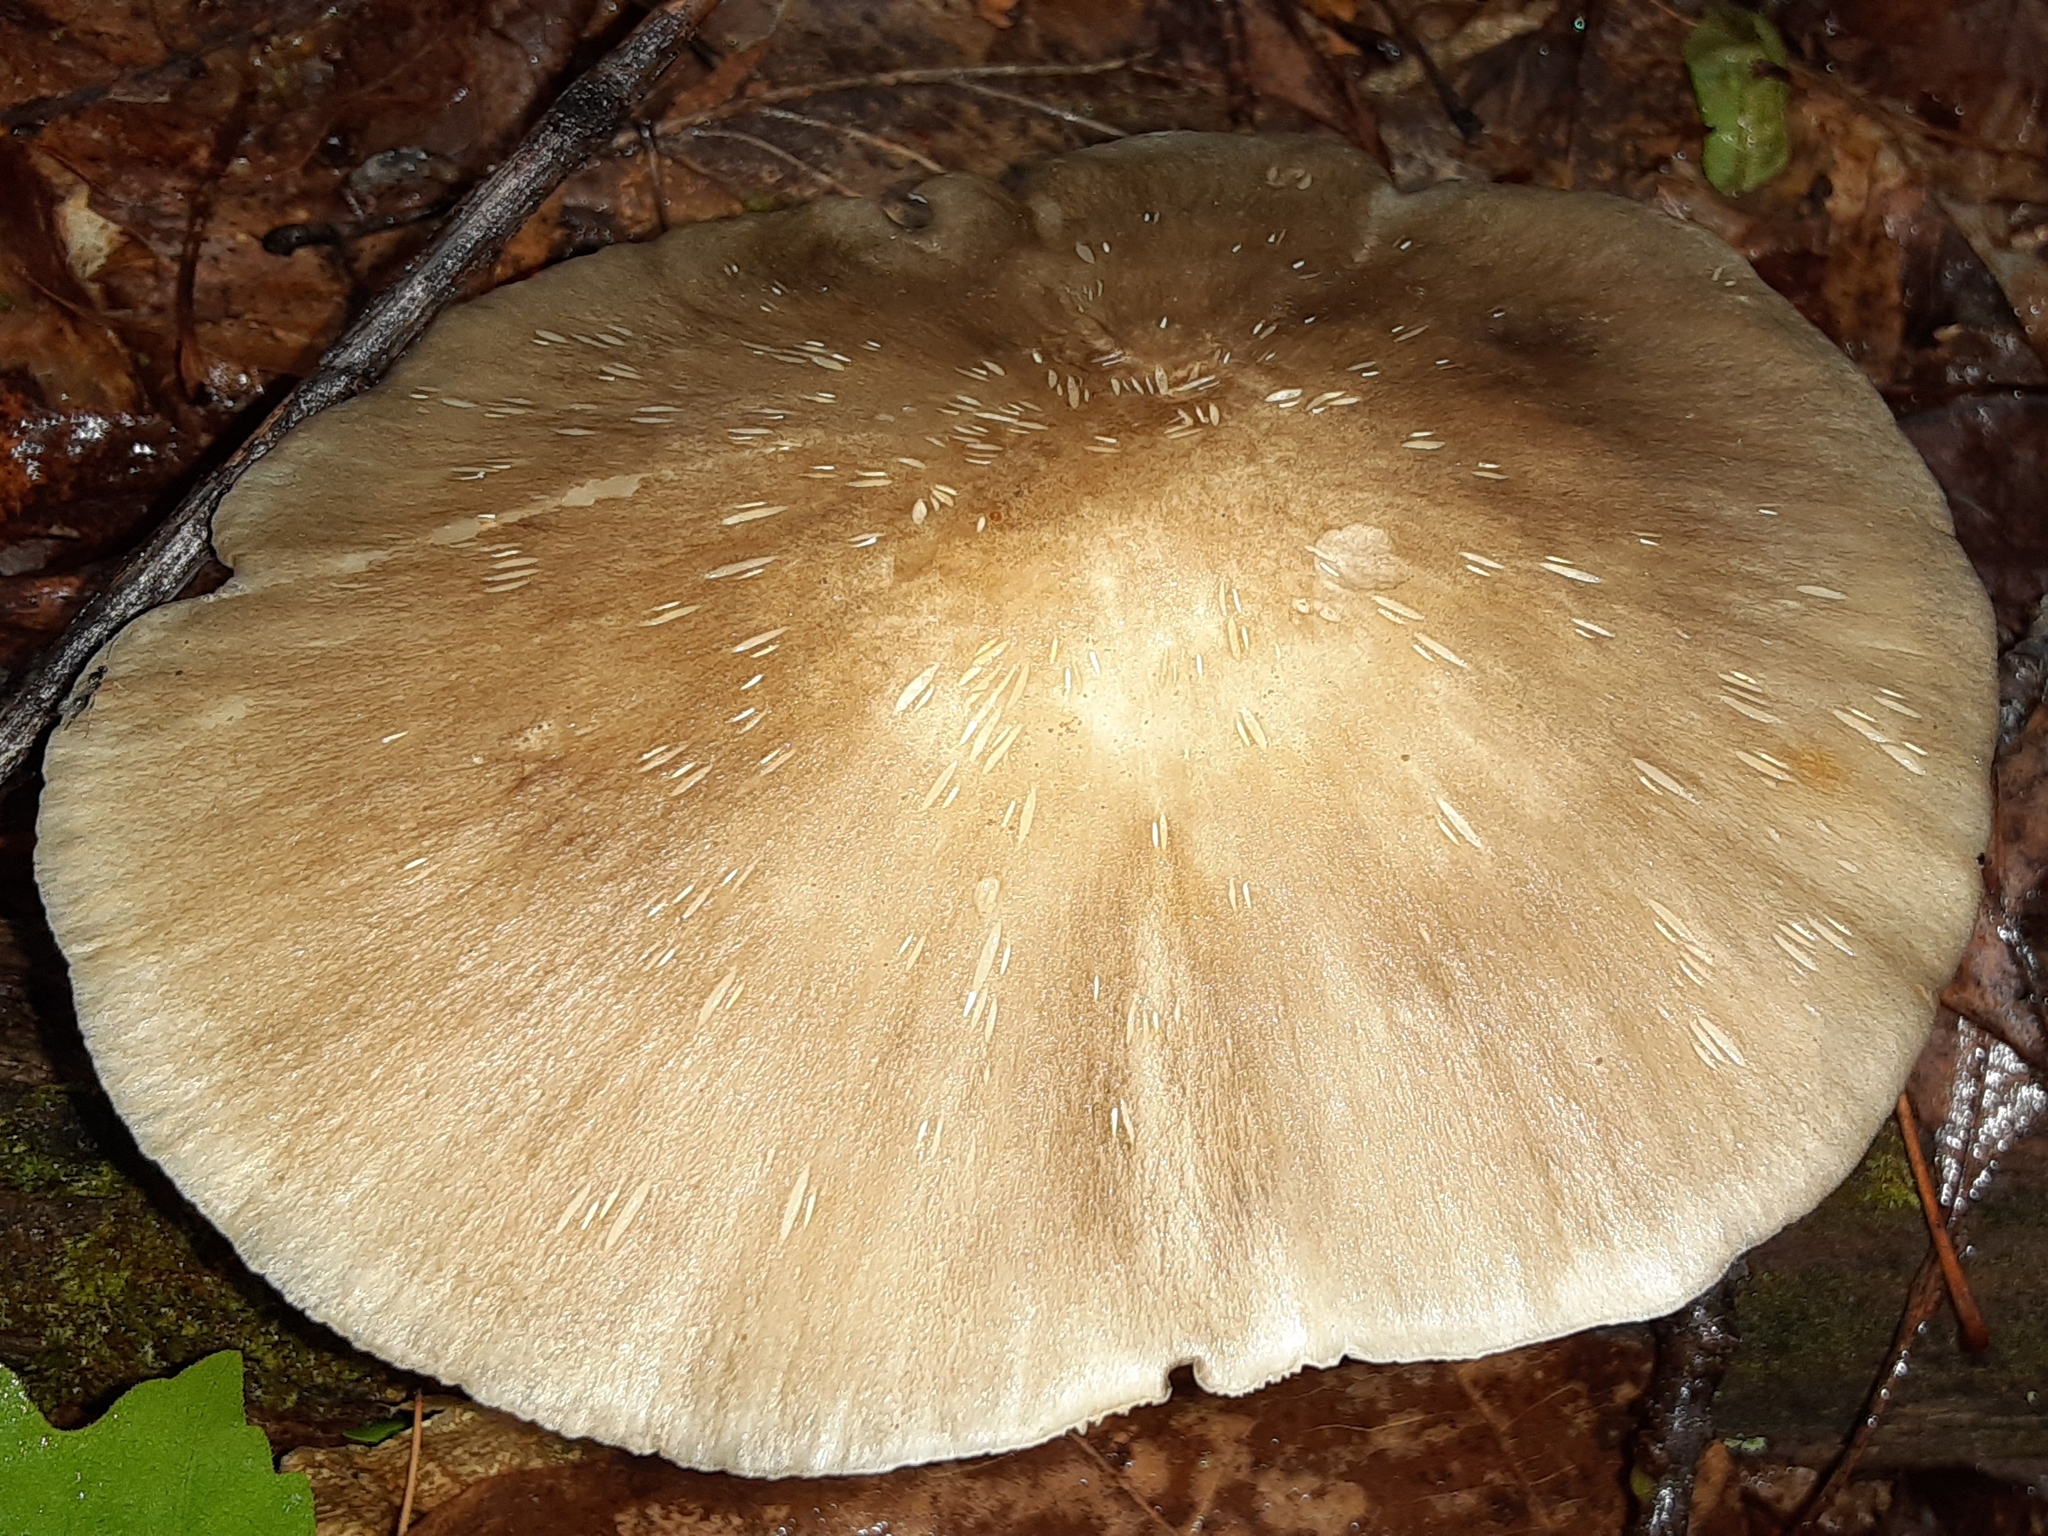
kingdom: Fungi
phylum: Basidiomycota
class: Agaricomycetes
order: Agaricales
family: Tricholomataceae
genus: Megacollybia
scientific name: Megacollybia rodmanii
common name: Eastern american platterful mushroom
